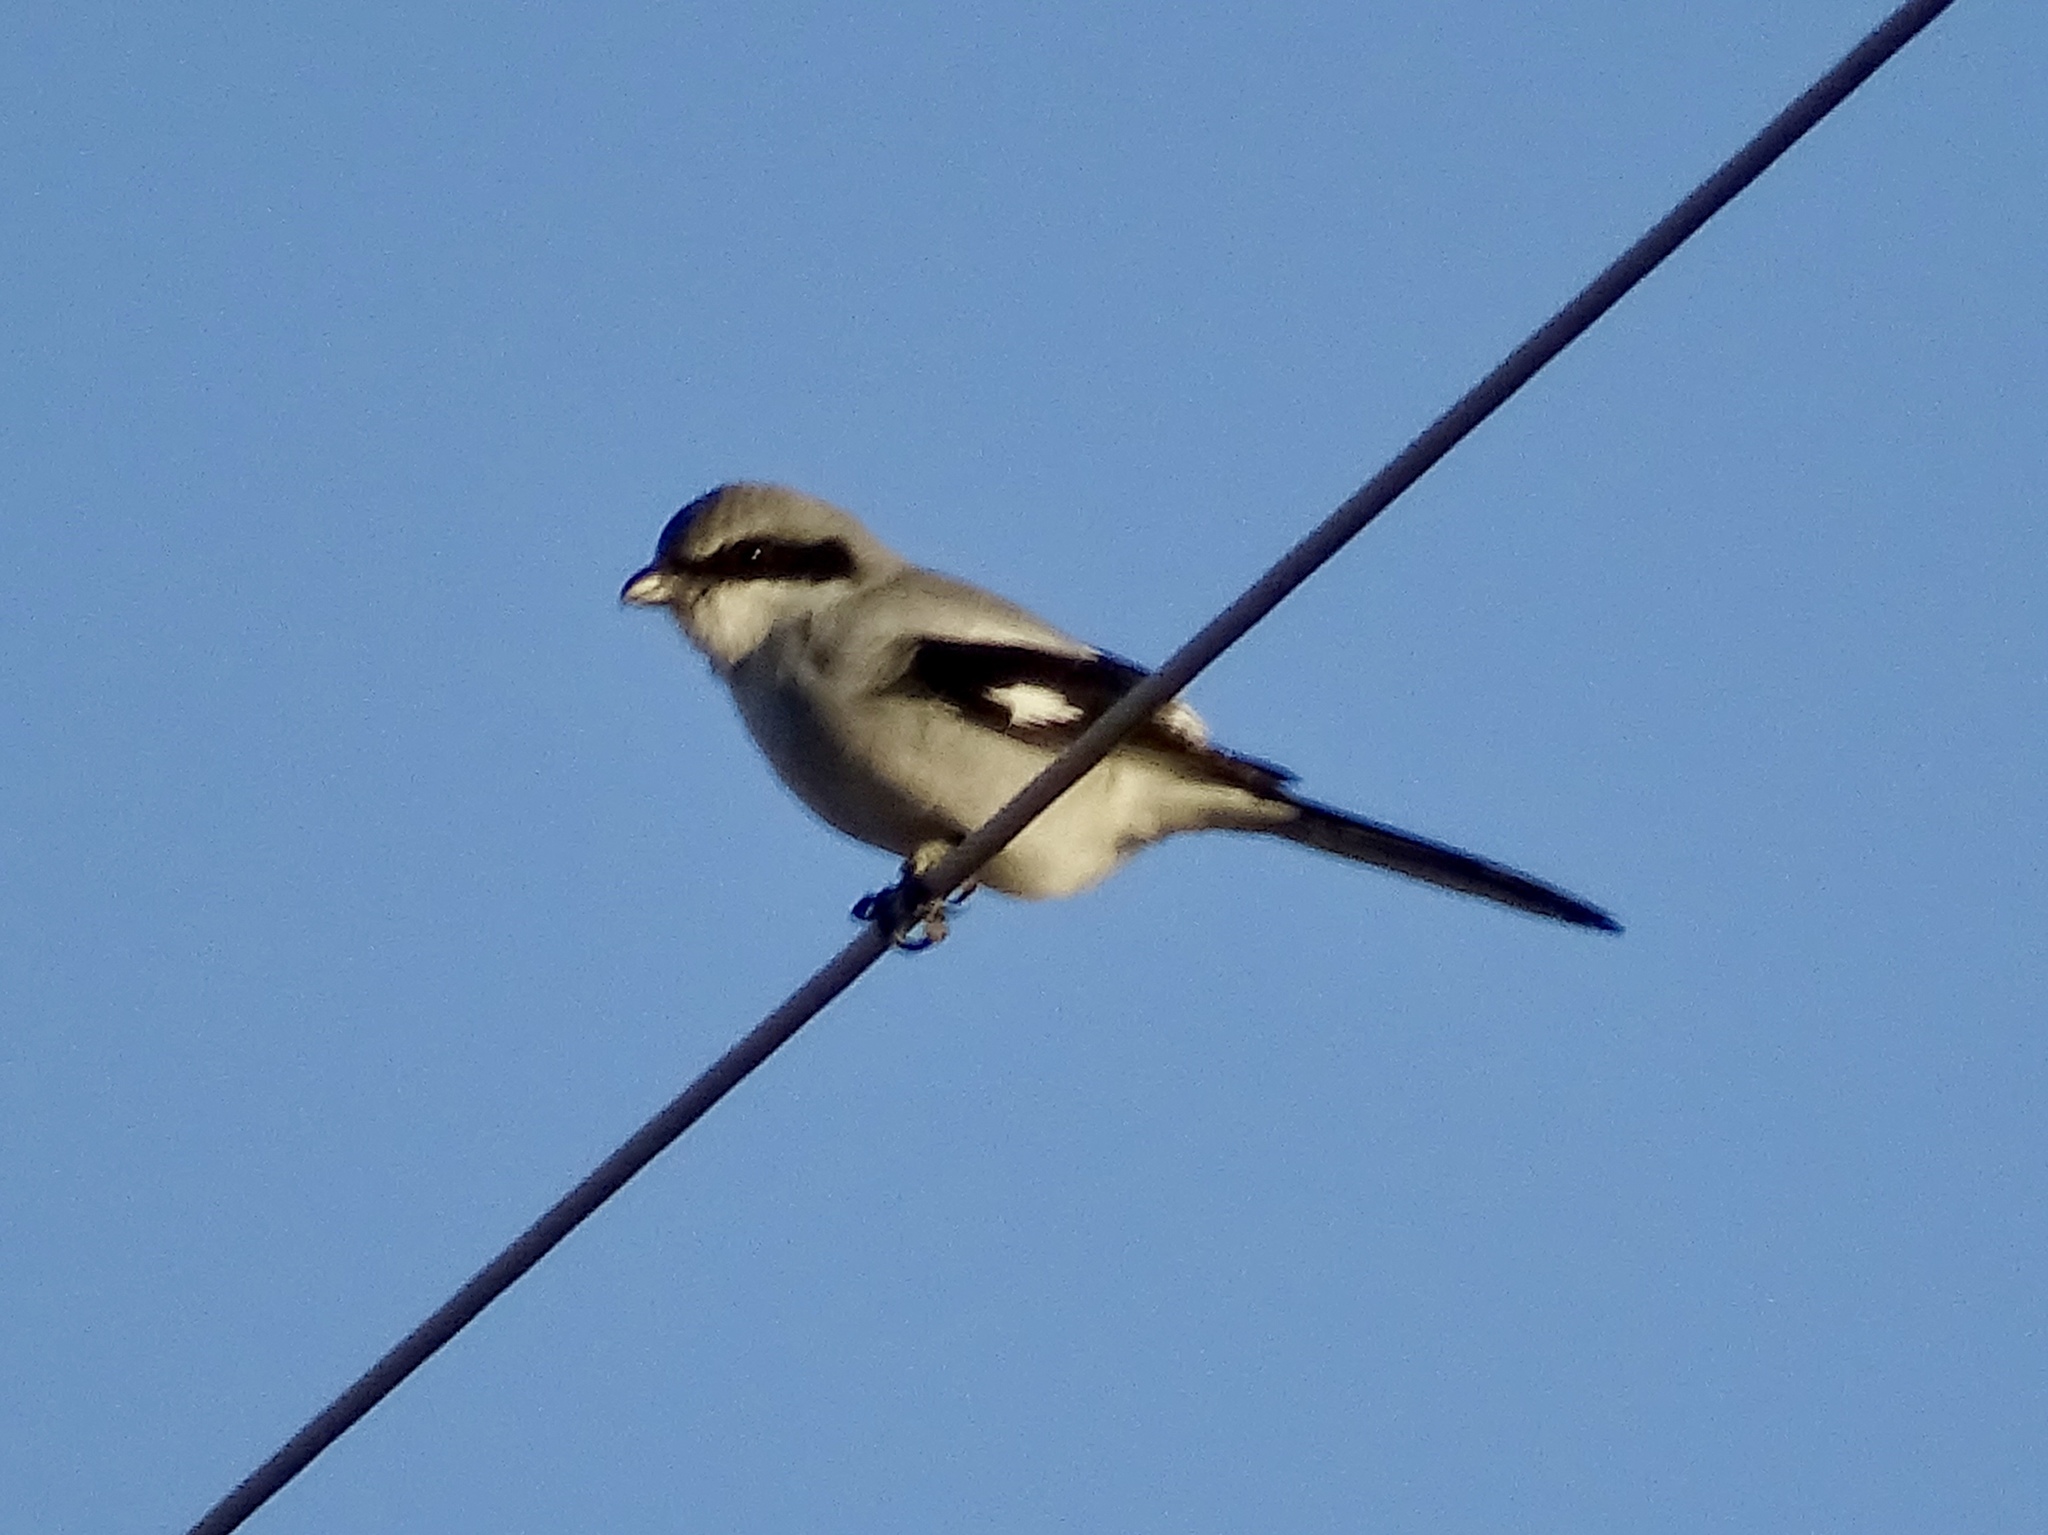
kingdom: Animalia
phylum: Chordata
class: Aves
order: Passeriformes
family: Laniidae
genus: Lanius
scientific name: Lanius ludovicianus
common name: Loggerhead shrike
